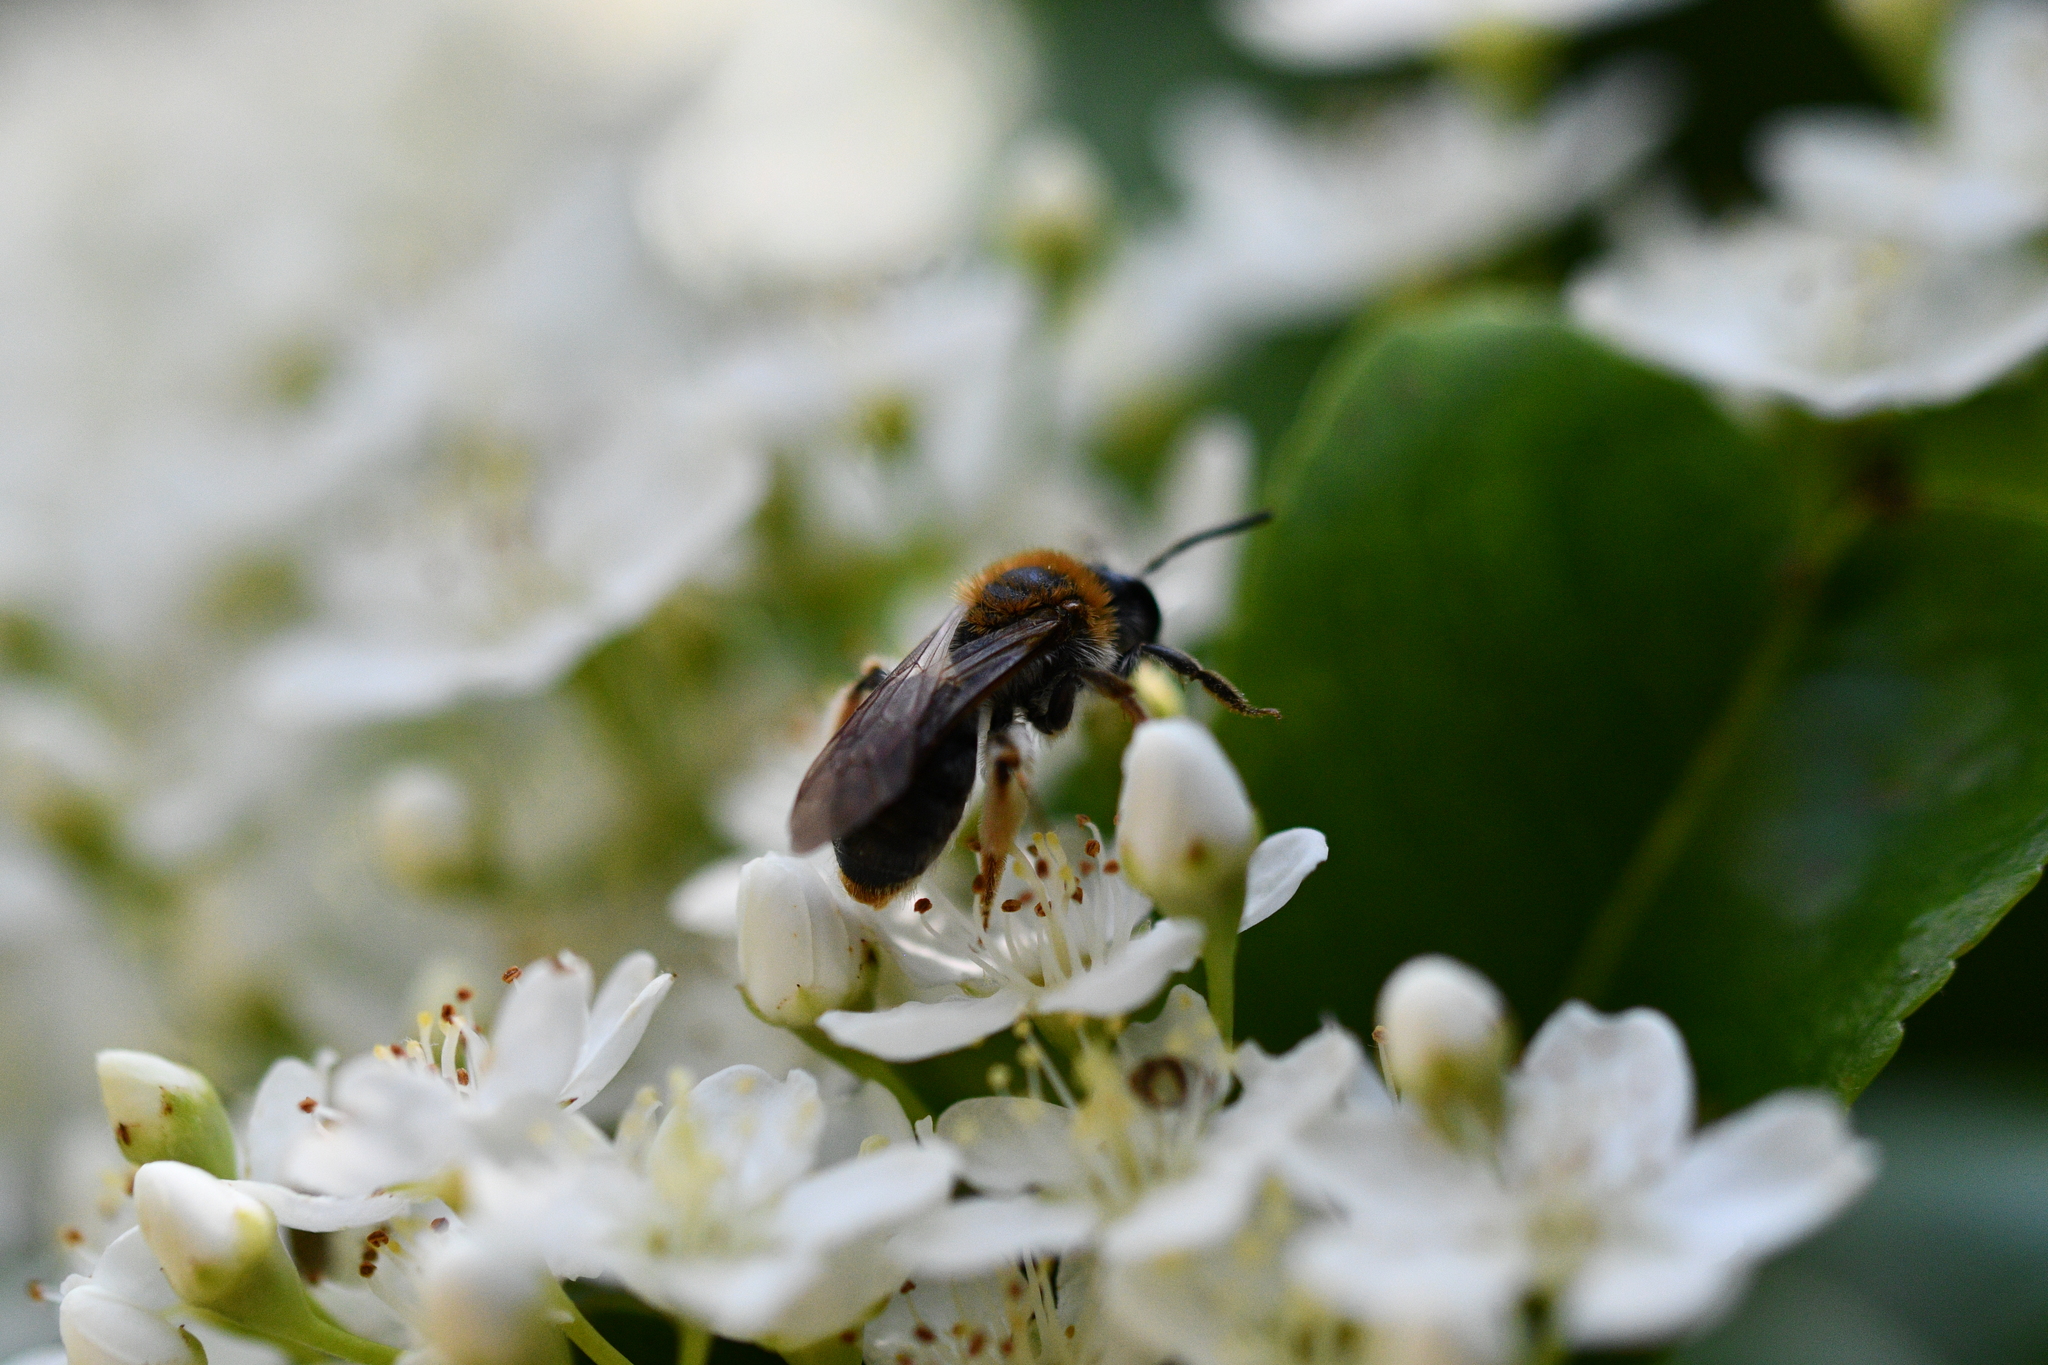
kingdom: Animalia
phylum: Arthropoda
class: Insecta
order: Hymenoptera
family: Andrenidae
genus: Andrena
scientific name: Andrena haemorrhoa
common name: Early mining bee
